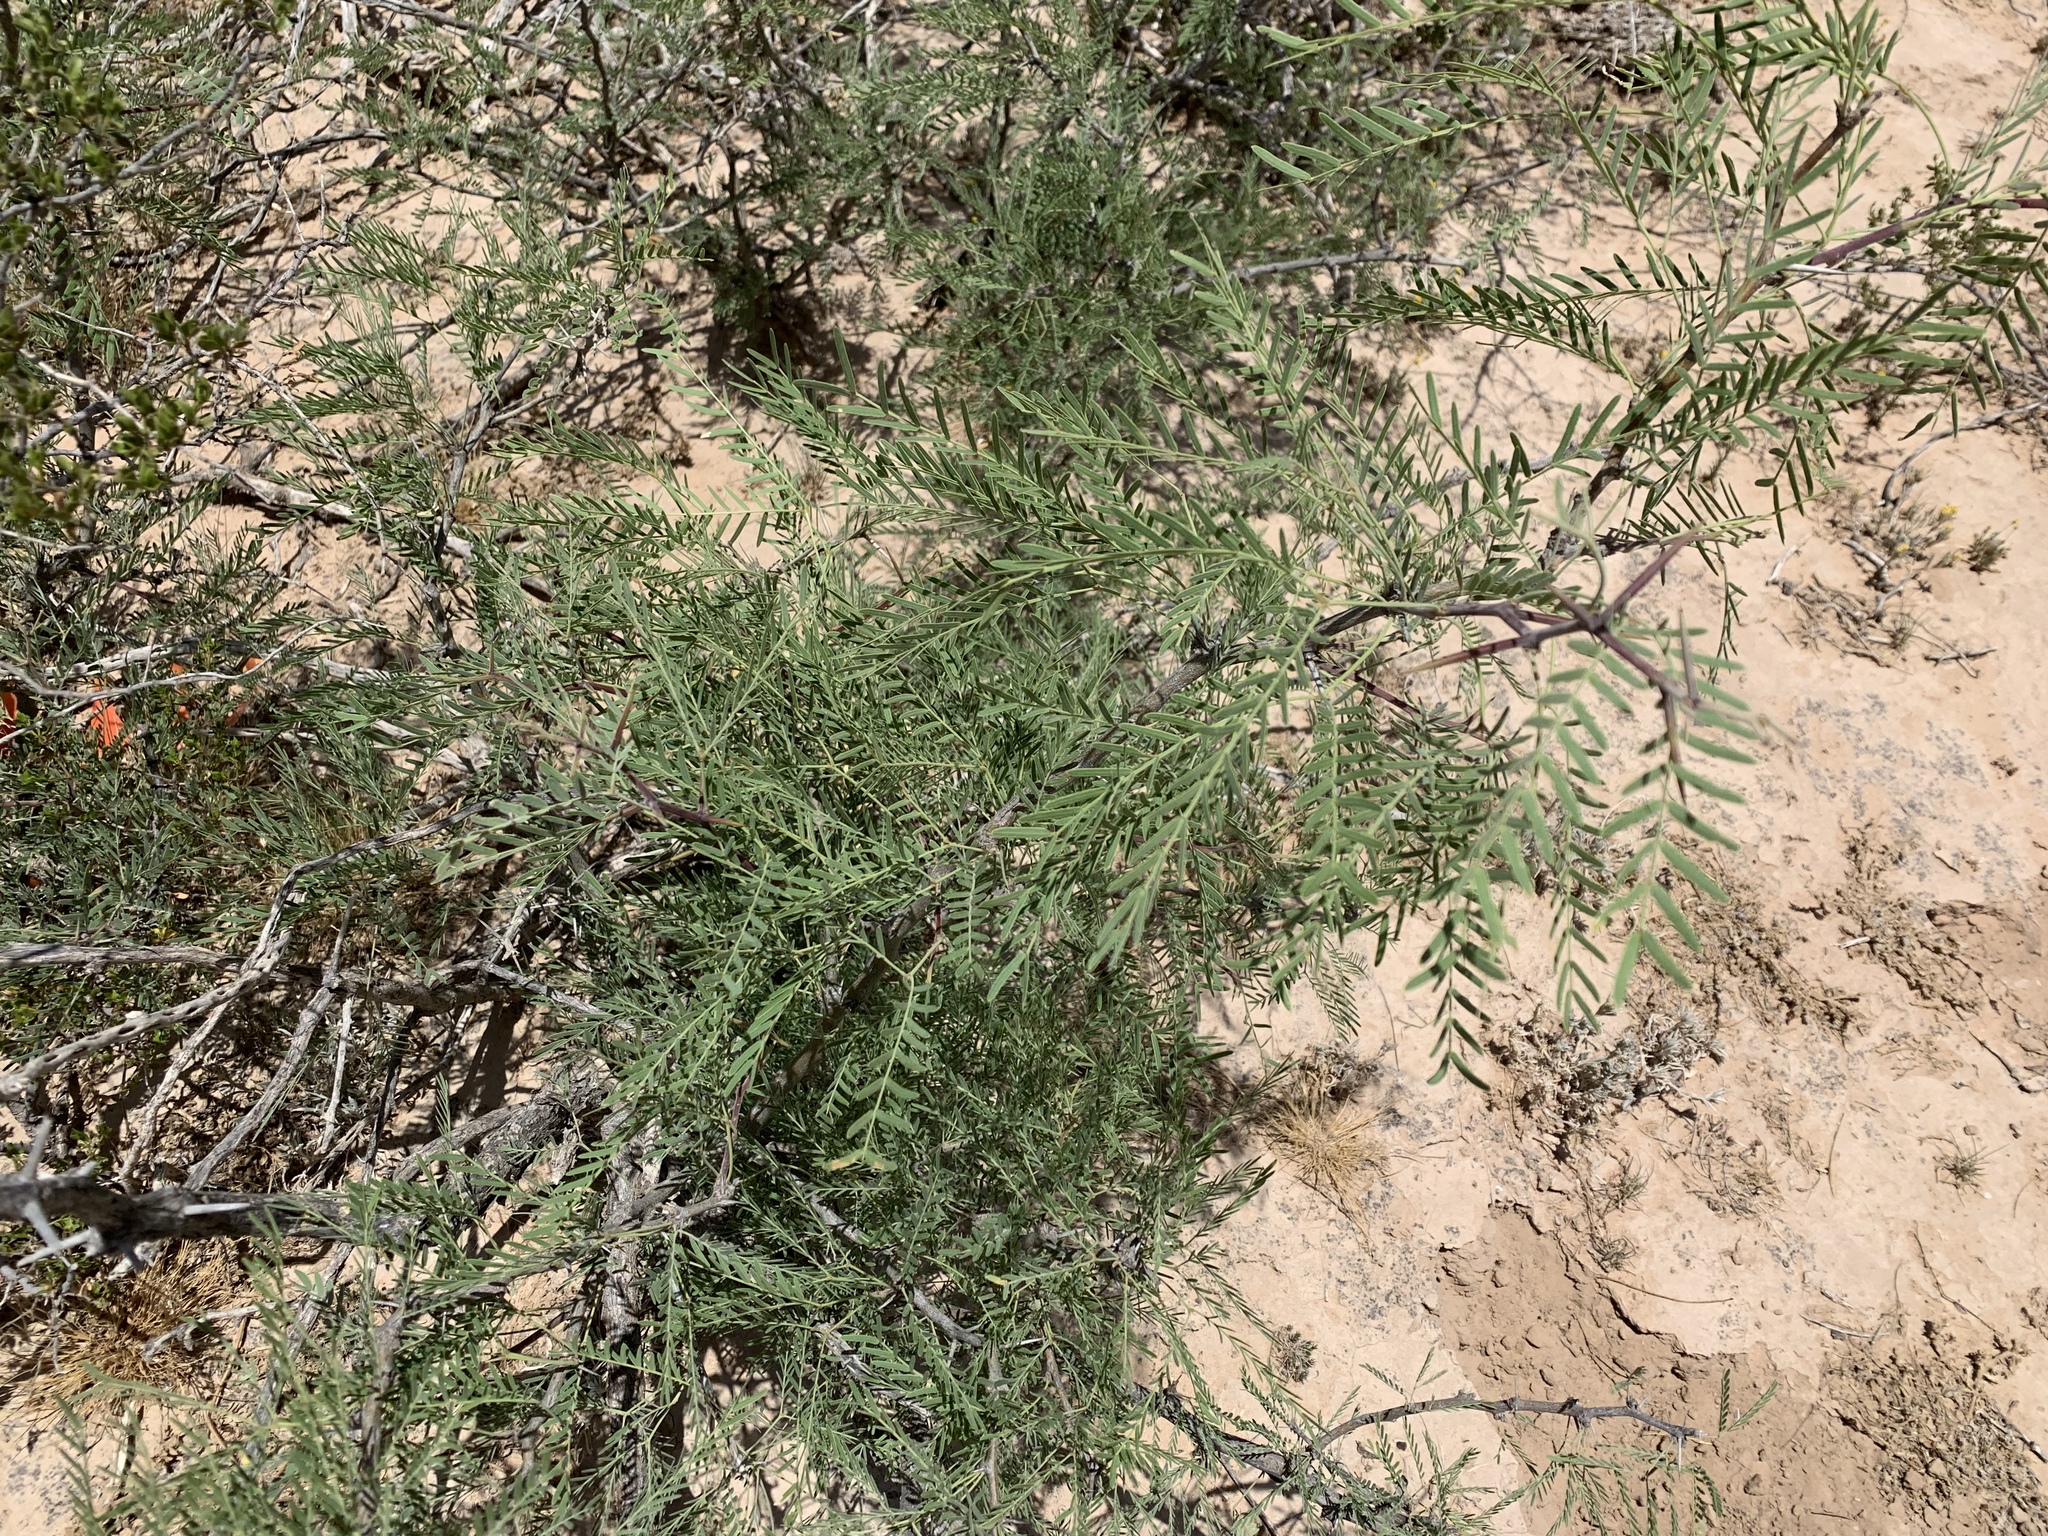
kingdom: Plantae
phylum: Tracheophyta
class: Magnoliopsida
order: Fabales
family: Fabaceae
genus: Prosopis
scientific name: Prosopis glandulosa
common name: Honey mesquite
